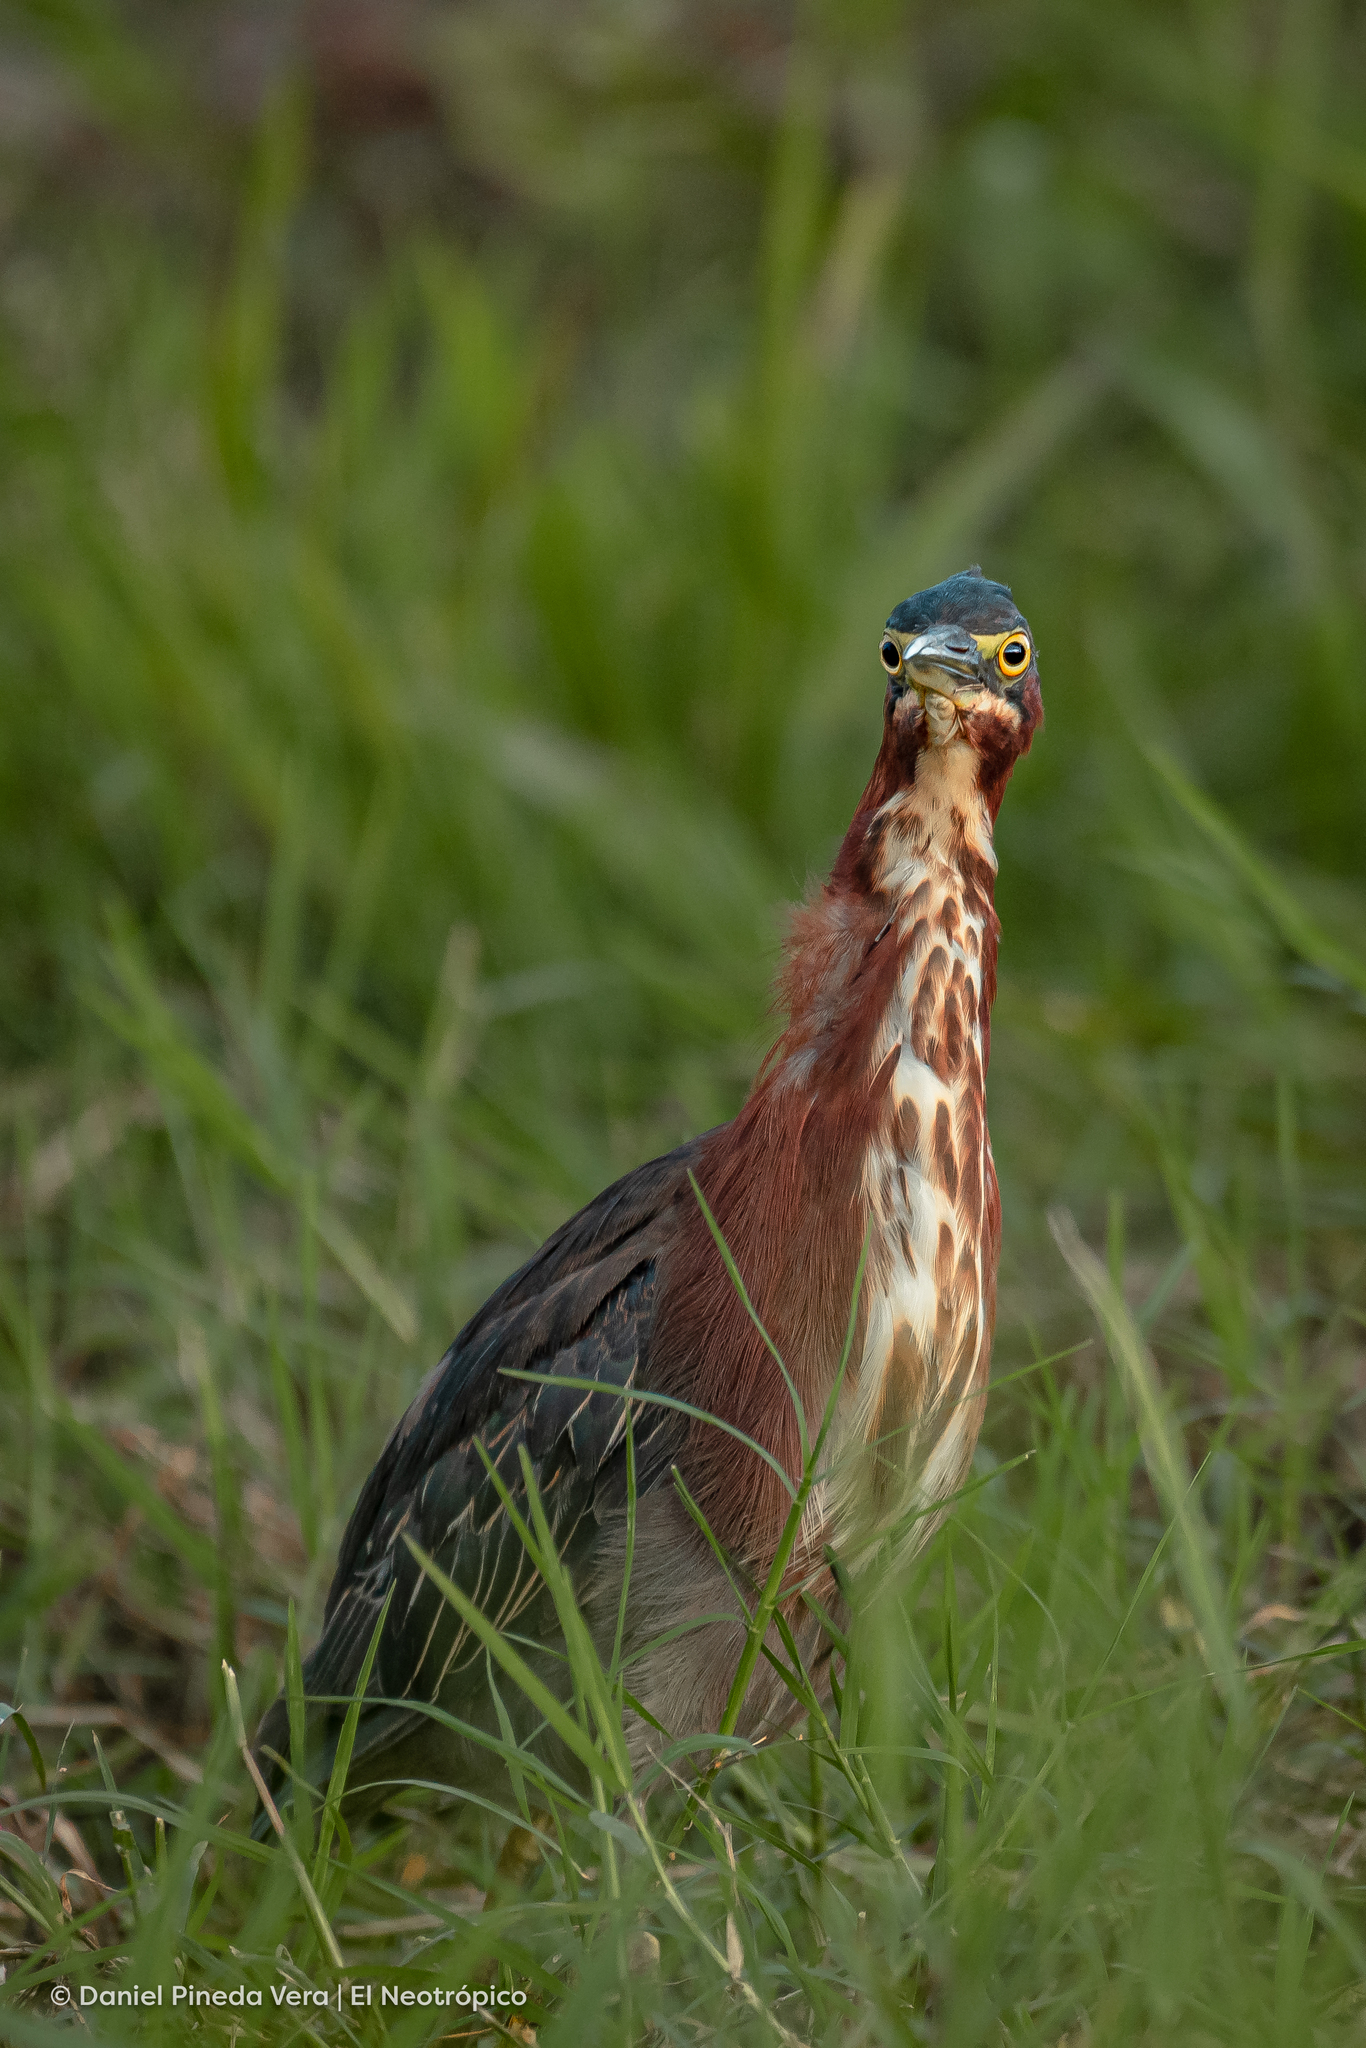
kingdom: Animalia
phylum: Chordata
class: Aves
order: Pelecaniformes
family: Ardeidae
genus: Butorides
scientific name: Butorides virescens
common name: Green heron
